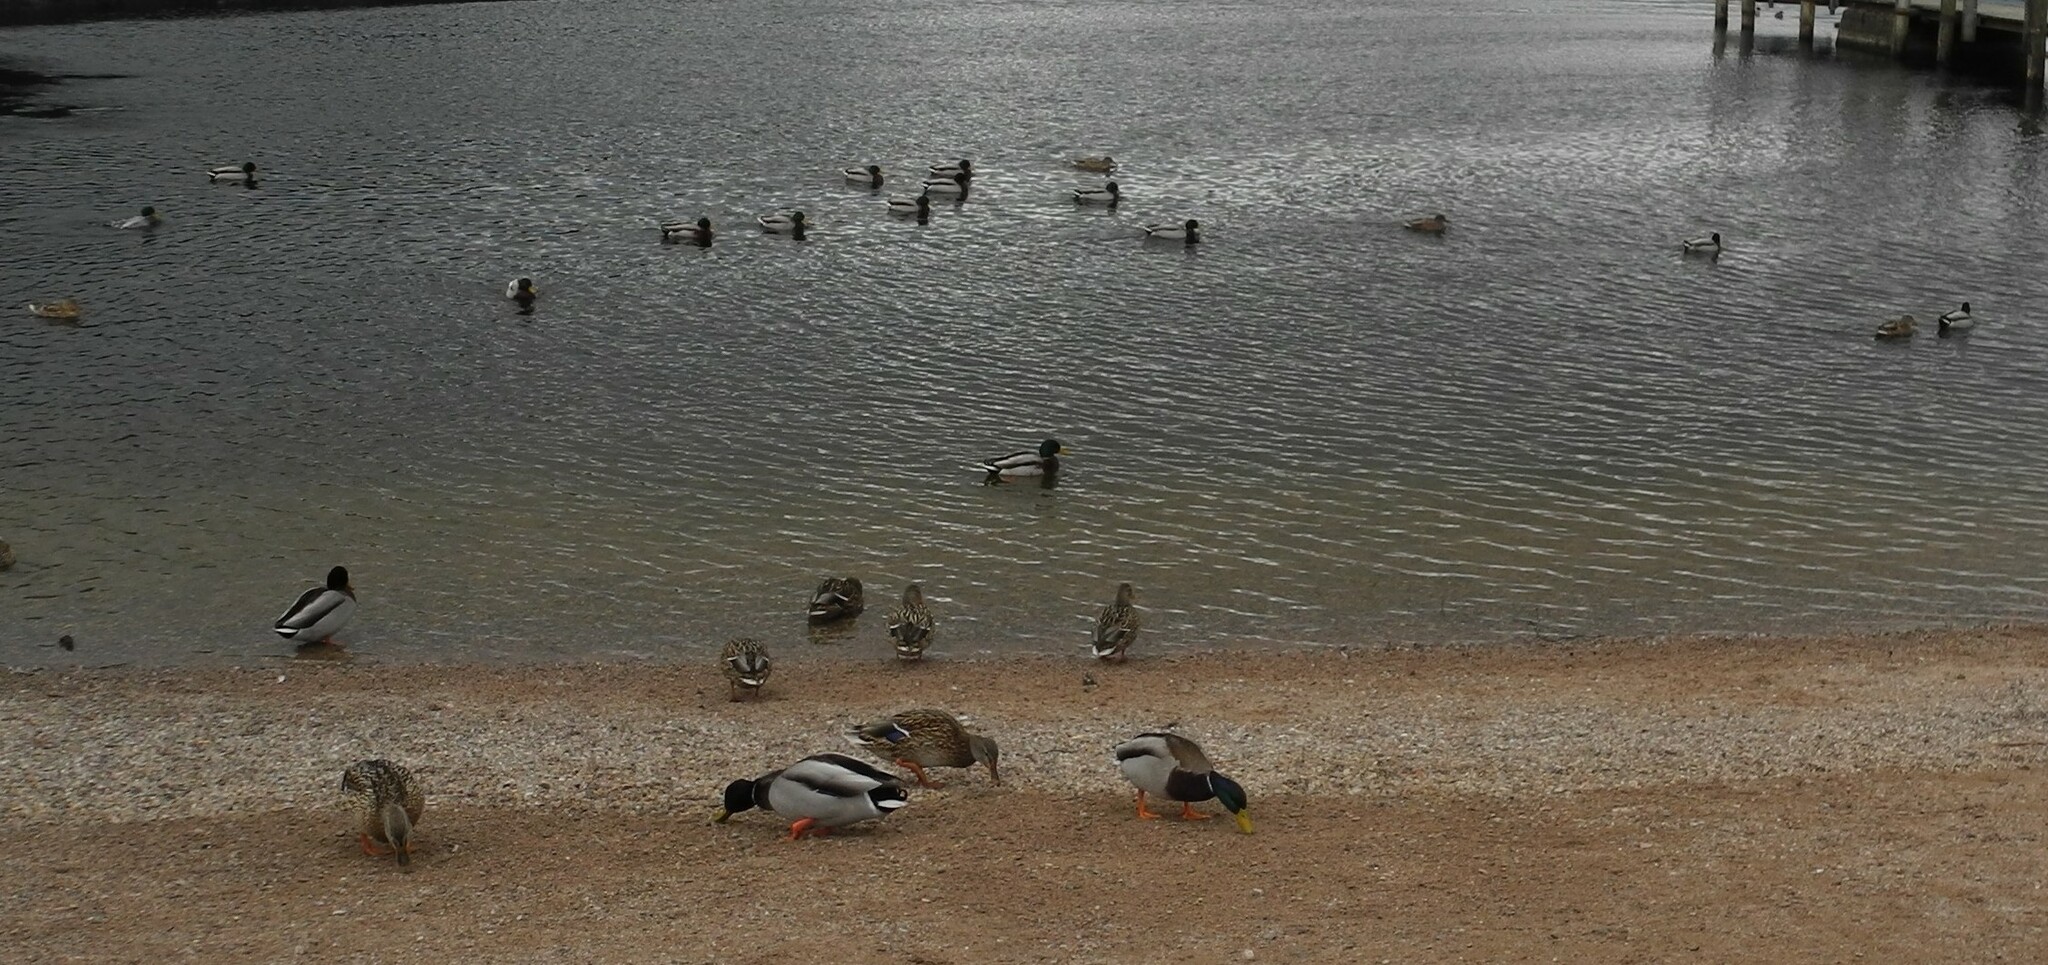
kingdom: Animalia
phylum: Chordata
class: Aves
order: Anseriformes
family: Anatidae
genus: Anas
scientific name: Anas platyrhynchos
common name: Mallard
